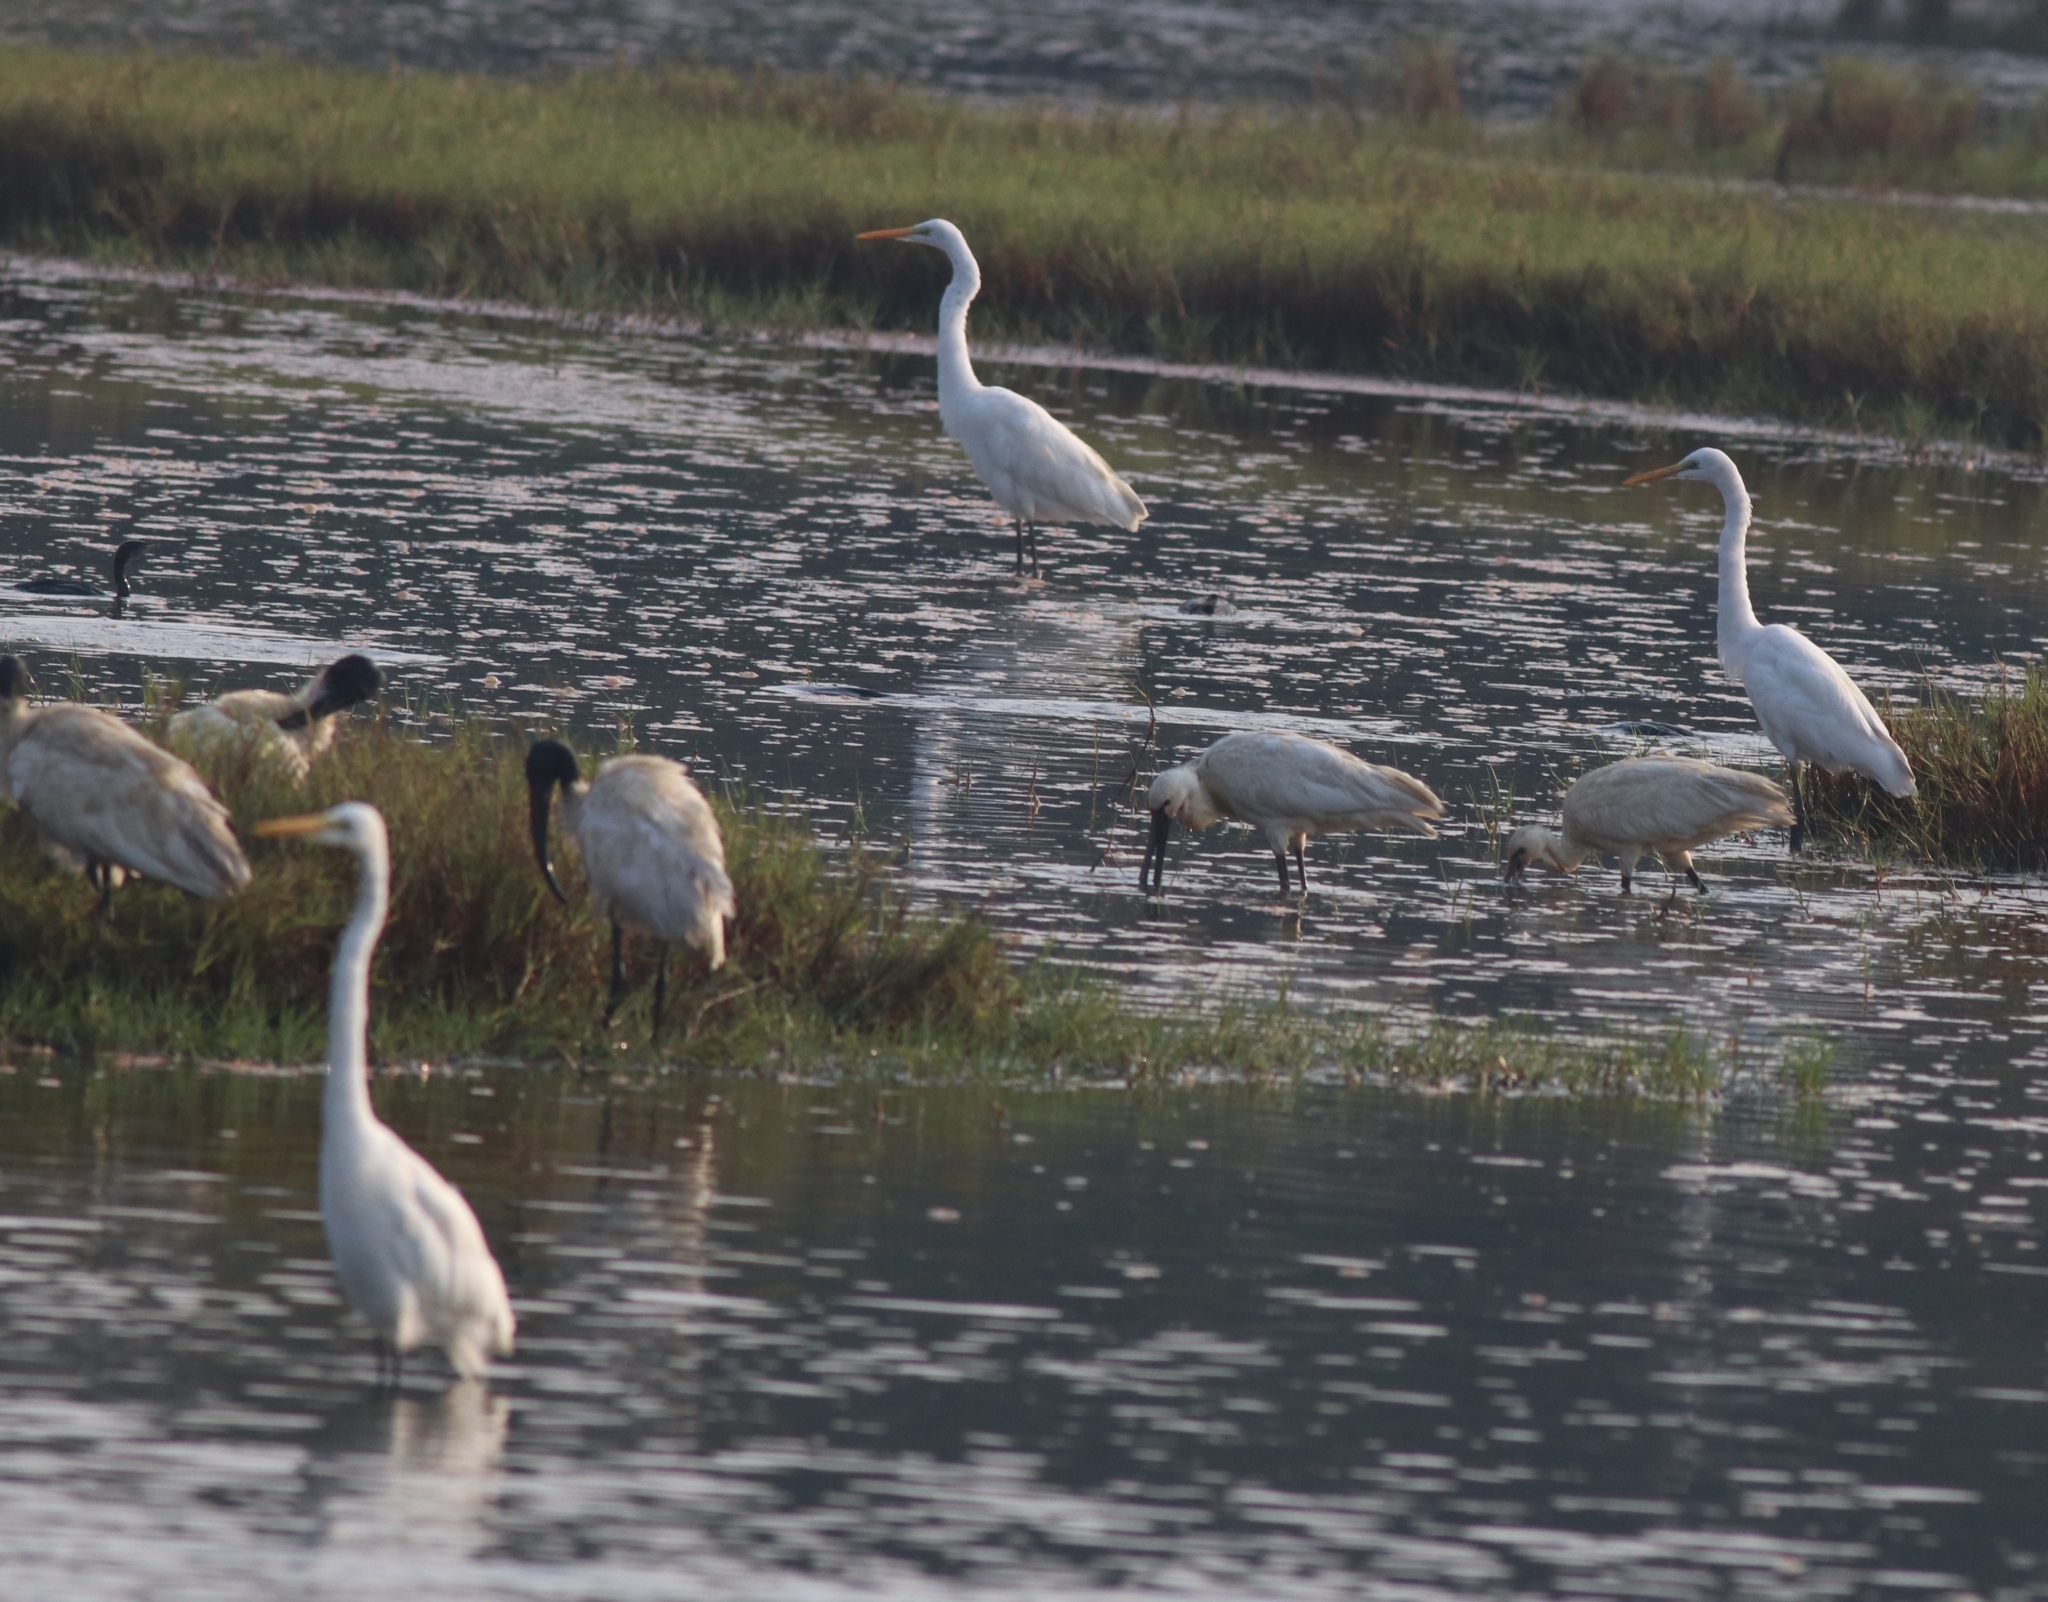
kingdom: Animalia
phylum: Chordata
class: Aves
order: Pelecaniformes
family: Threskiornithidae
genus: Threskiornis
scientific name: Threskiornis melanocephalus
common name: Black-headed ibis
